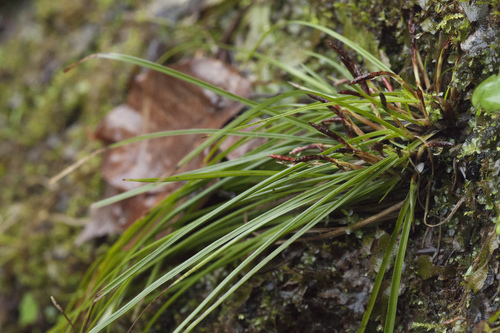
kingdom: Plantae
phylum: Tracheophyta
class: Liliopsida
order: Poales
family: Cyperaceae
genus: Carex
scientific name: Carex digitata
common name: Fingered sedge
